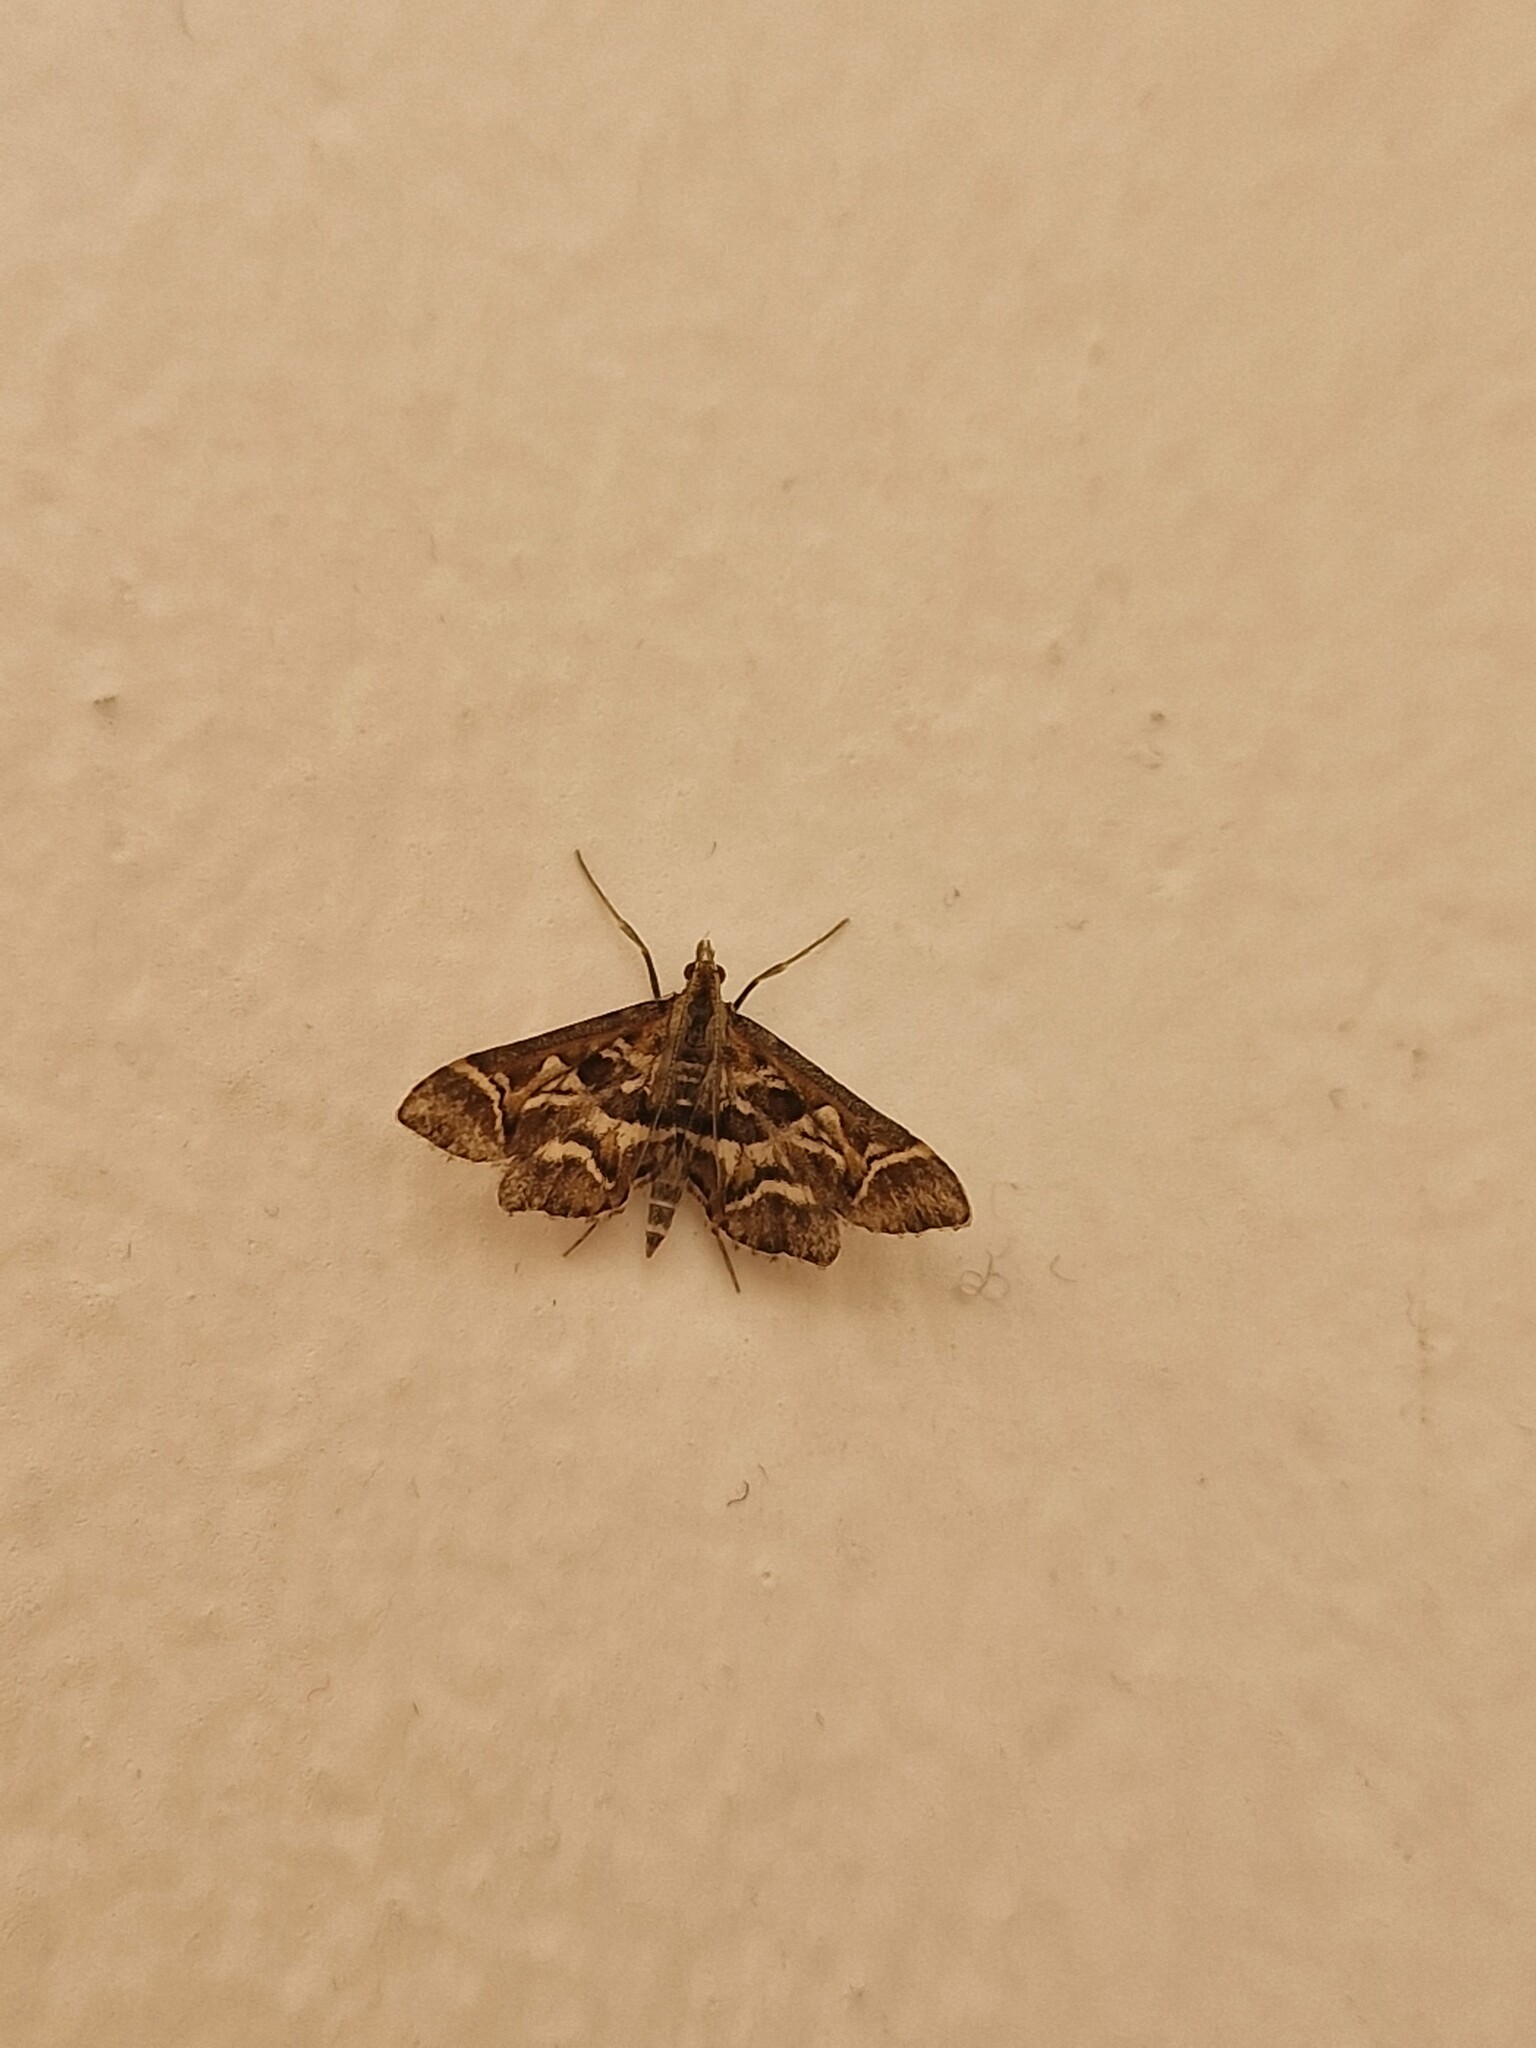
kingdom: Animalia
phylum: Arthropoda
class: Insecta
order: Lepidoptera
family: Crambidae
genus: Diasemia
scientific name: Diasemia reticularis
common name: Lettered china-mark
